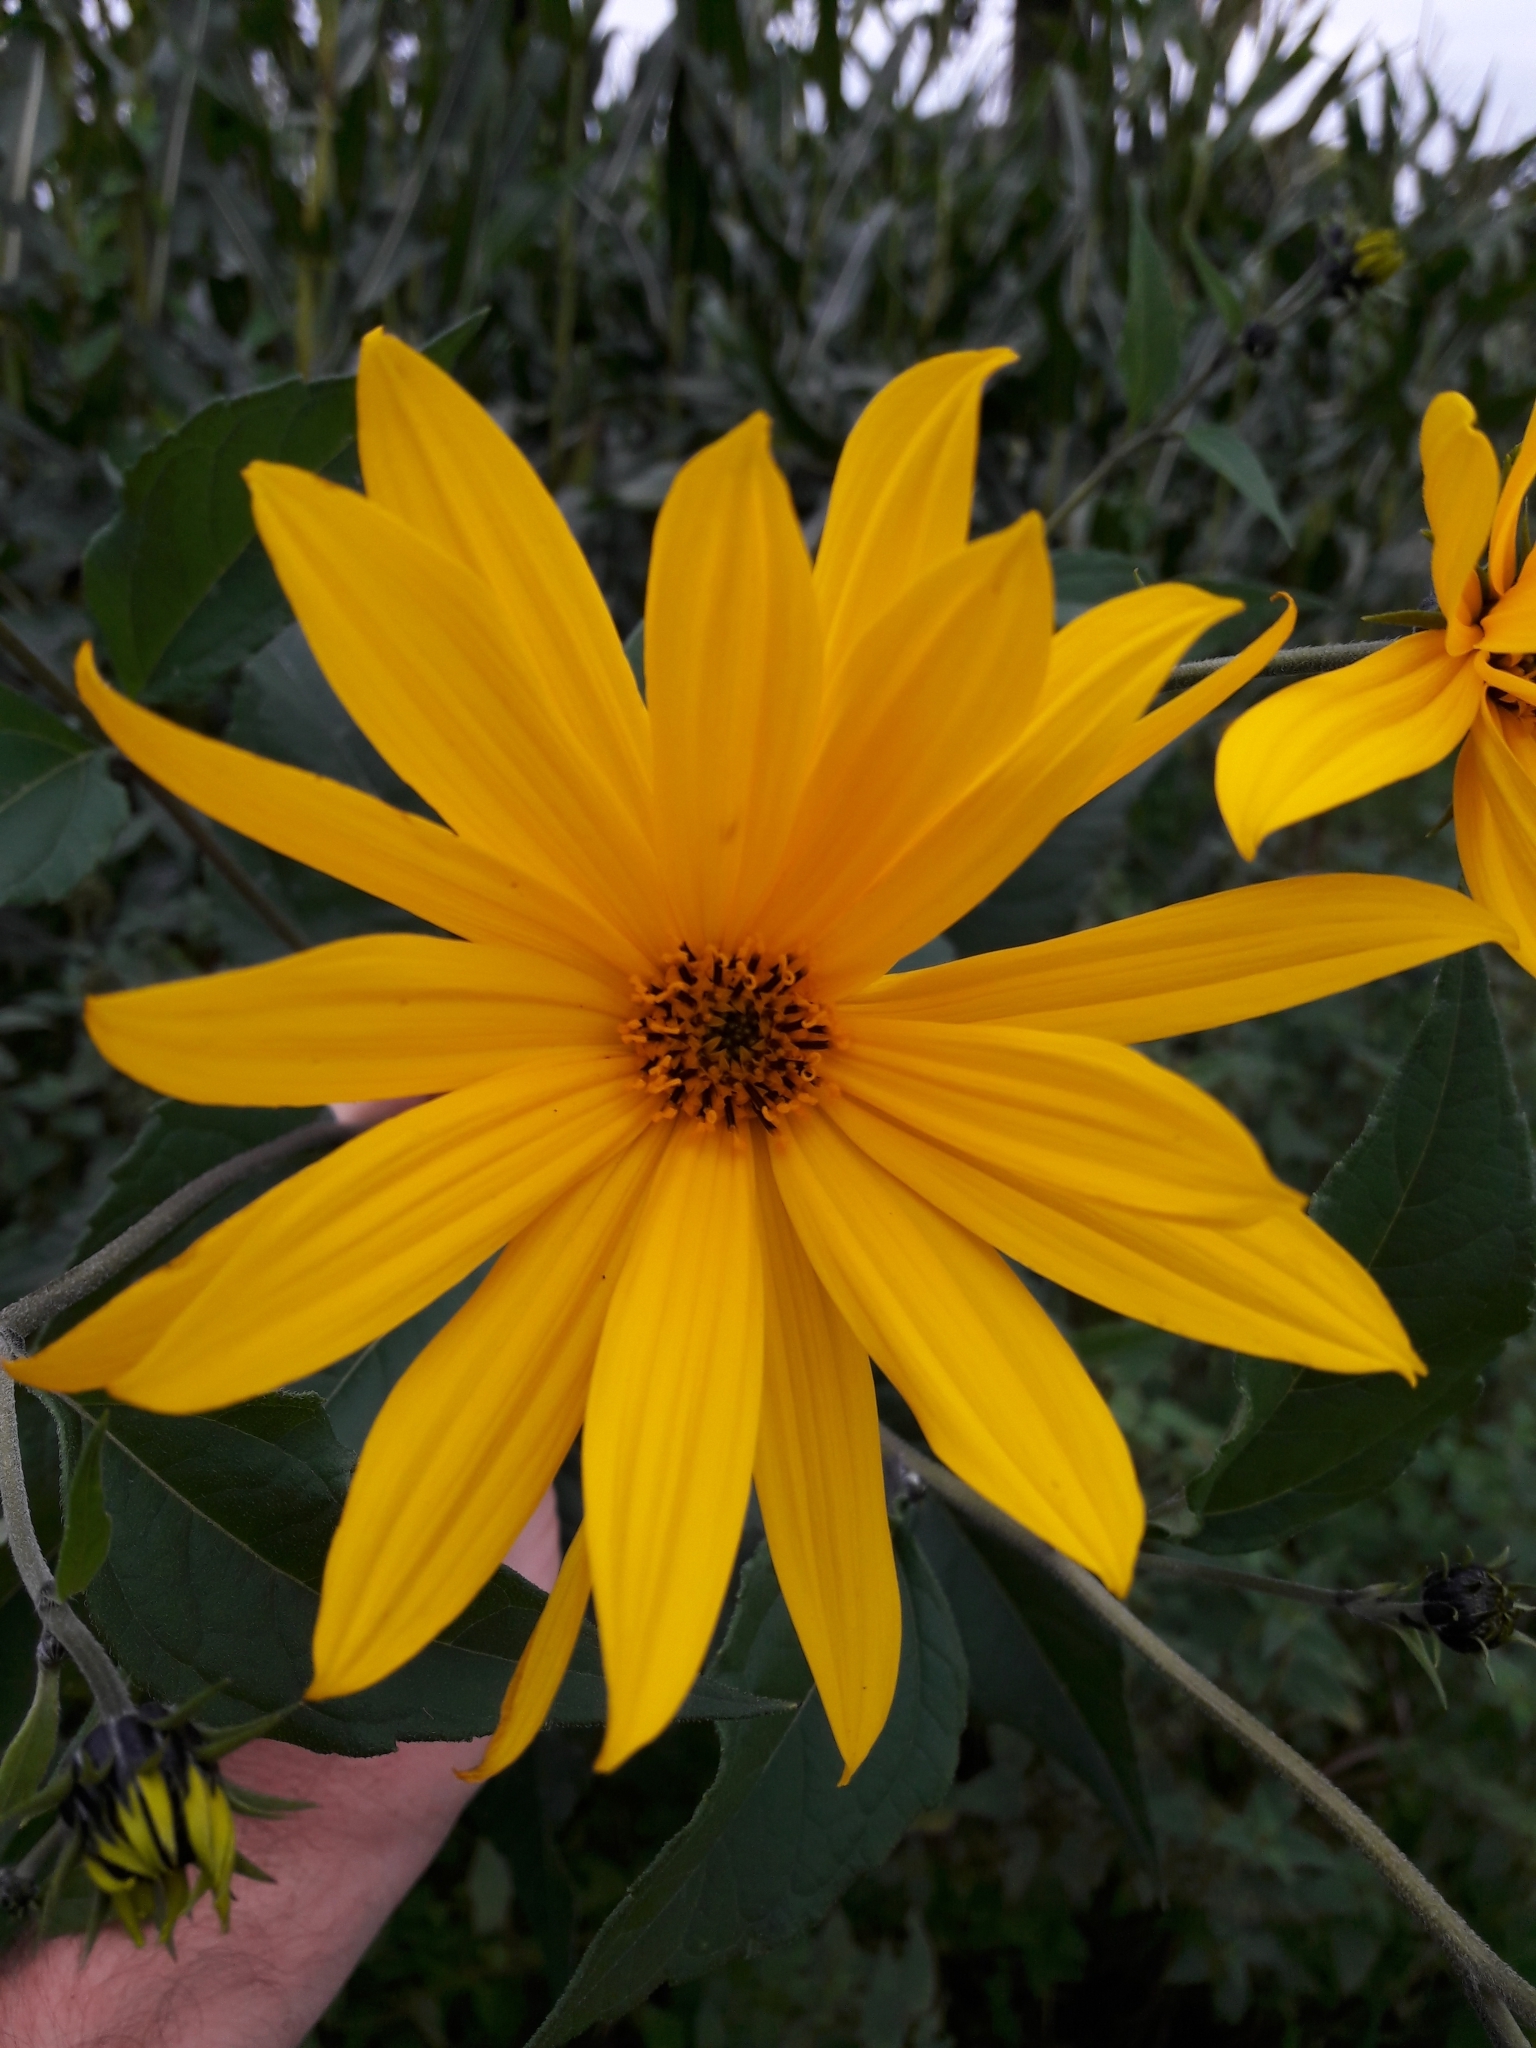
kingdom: Plantae
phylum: Tracheophyta
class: Magnoliopsida
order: Asterales
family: Asteraceae
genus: Helianthus
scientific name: Helianthus tuberosus
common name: Jerusalem artichoke
